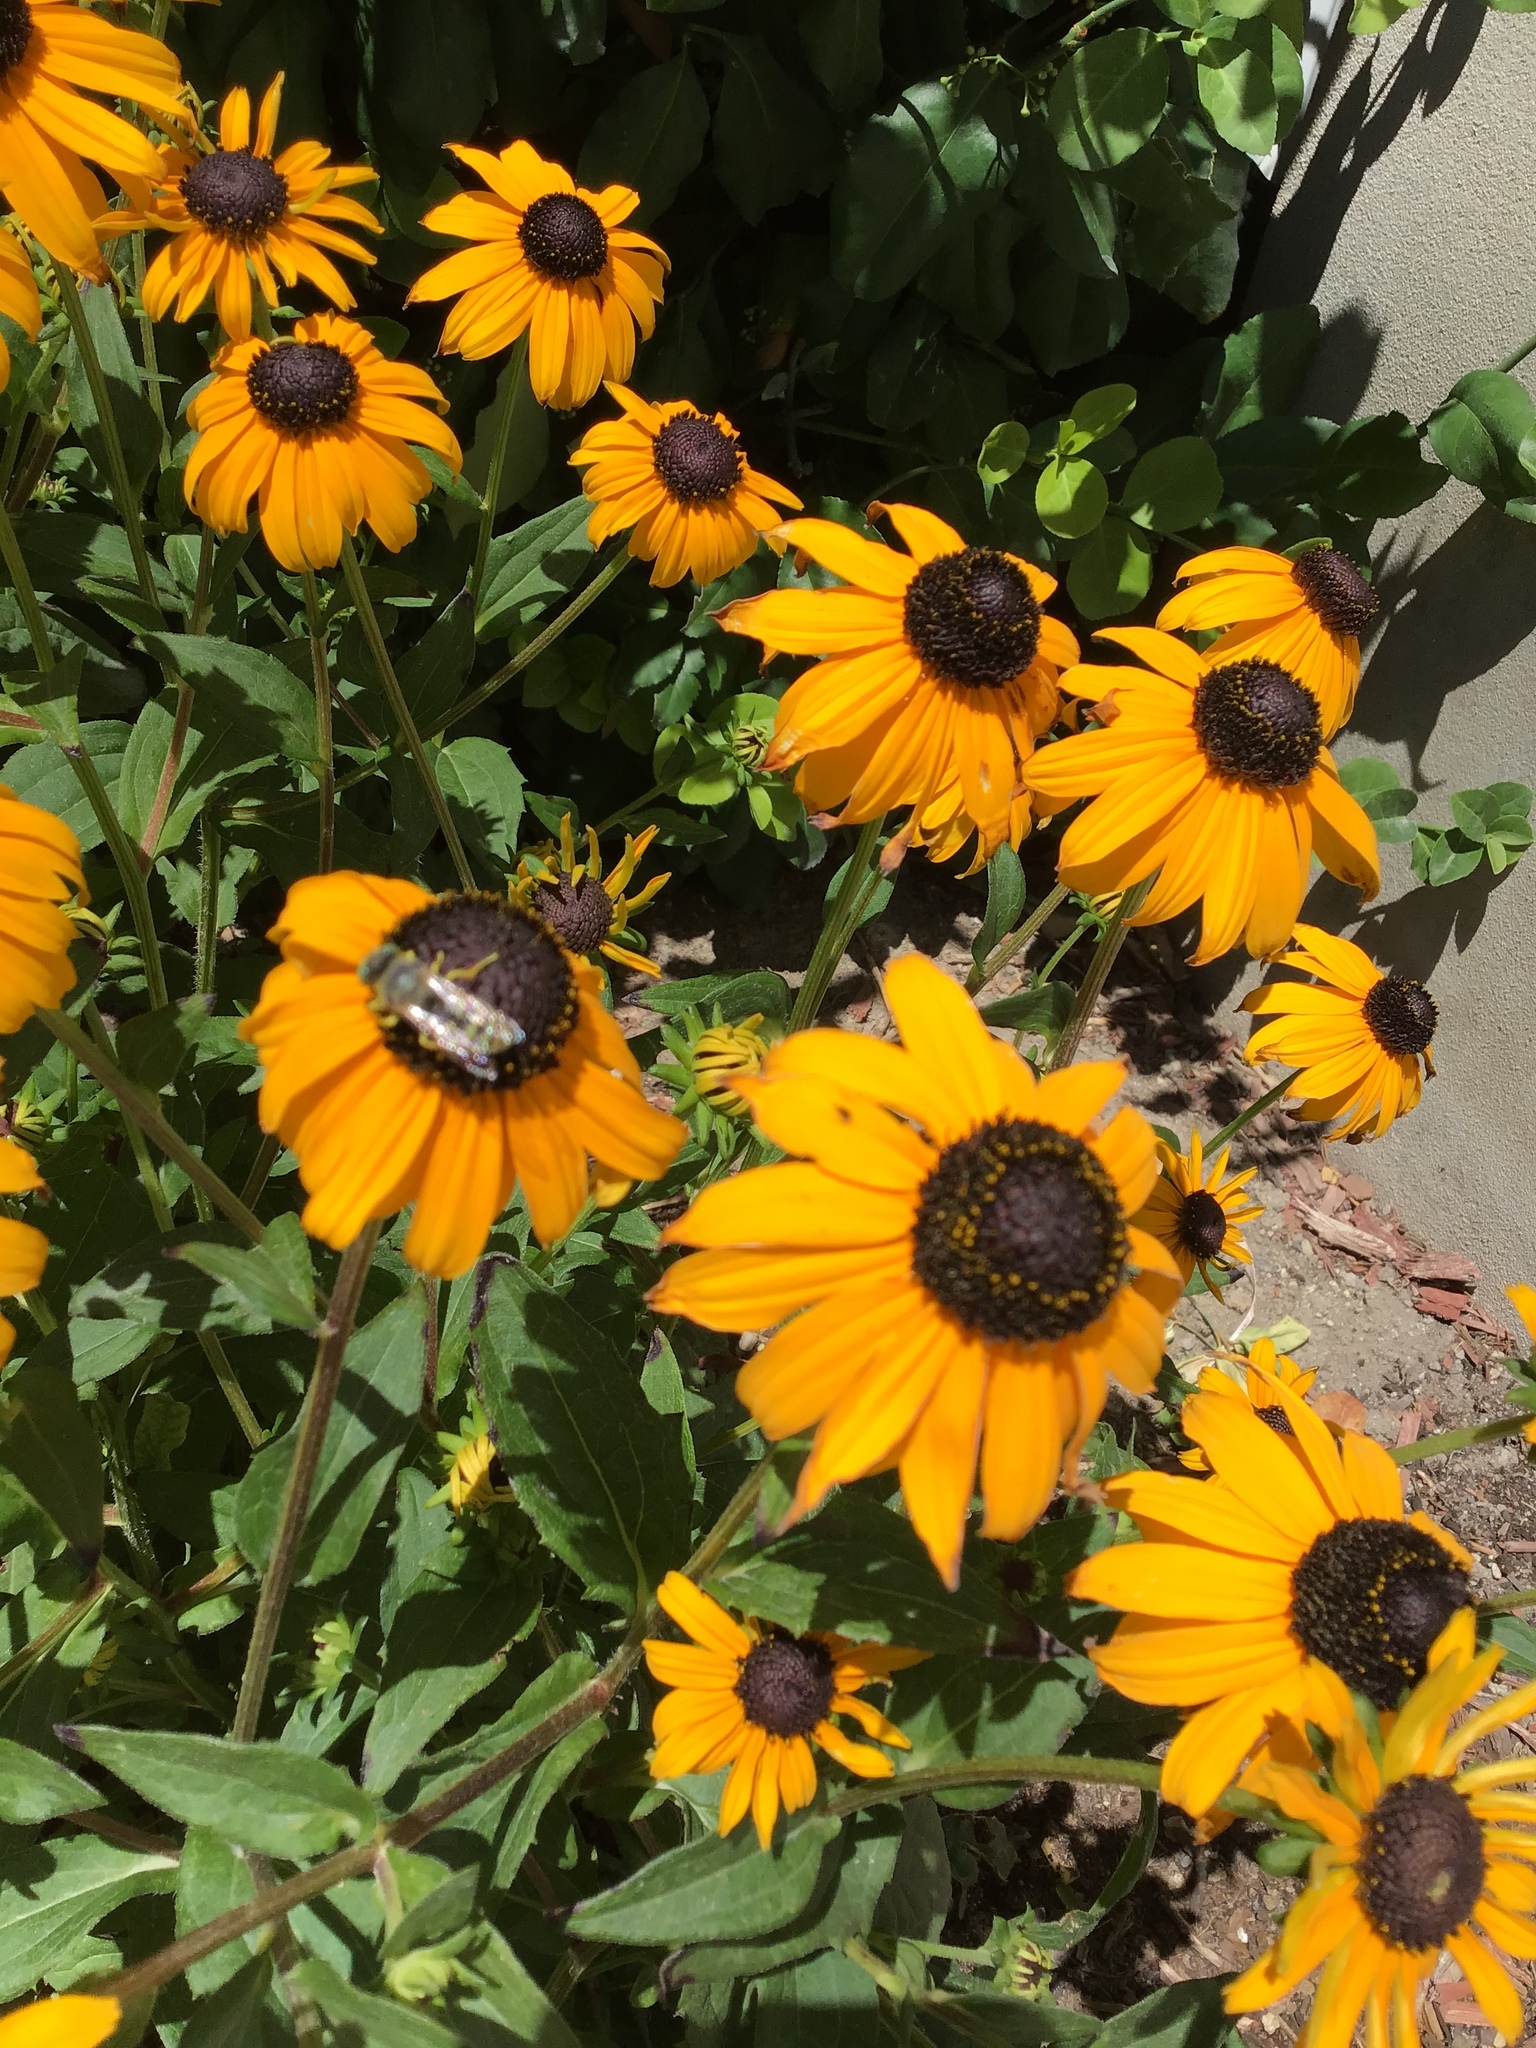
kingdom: Animalia
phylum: Arthropoda
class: Insecta
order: Hymenoptera
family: Crabronidae
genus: Bembix
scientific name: Bembix americana
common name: American sand wasp
